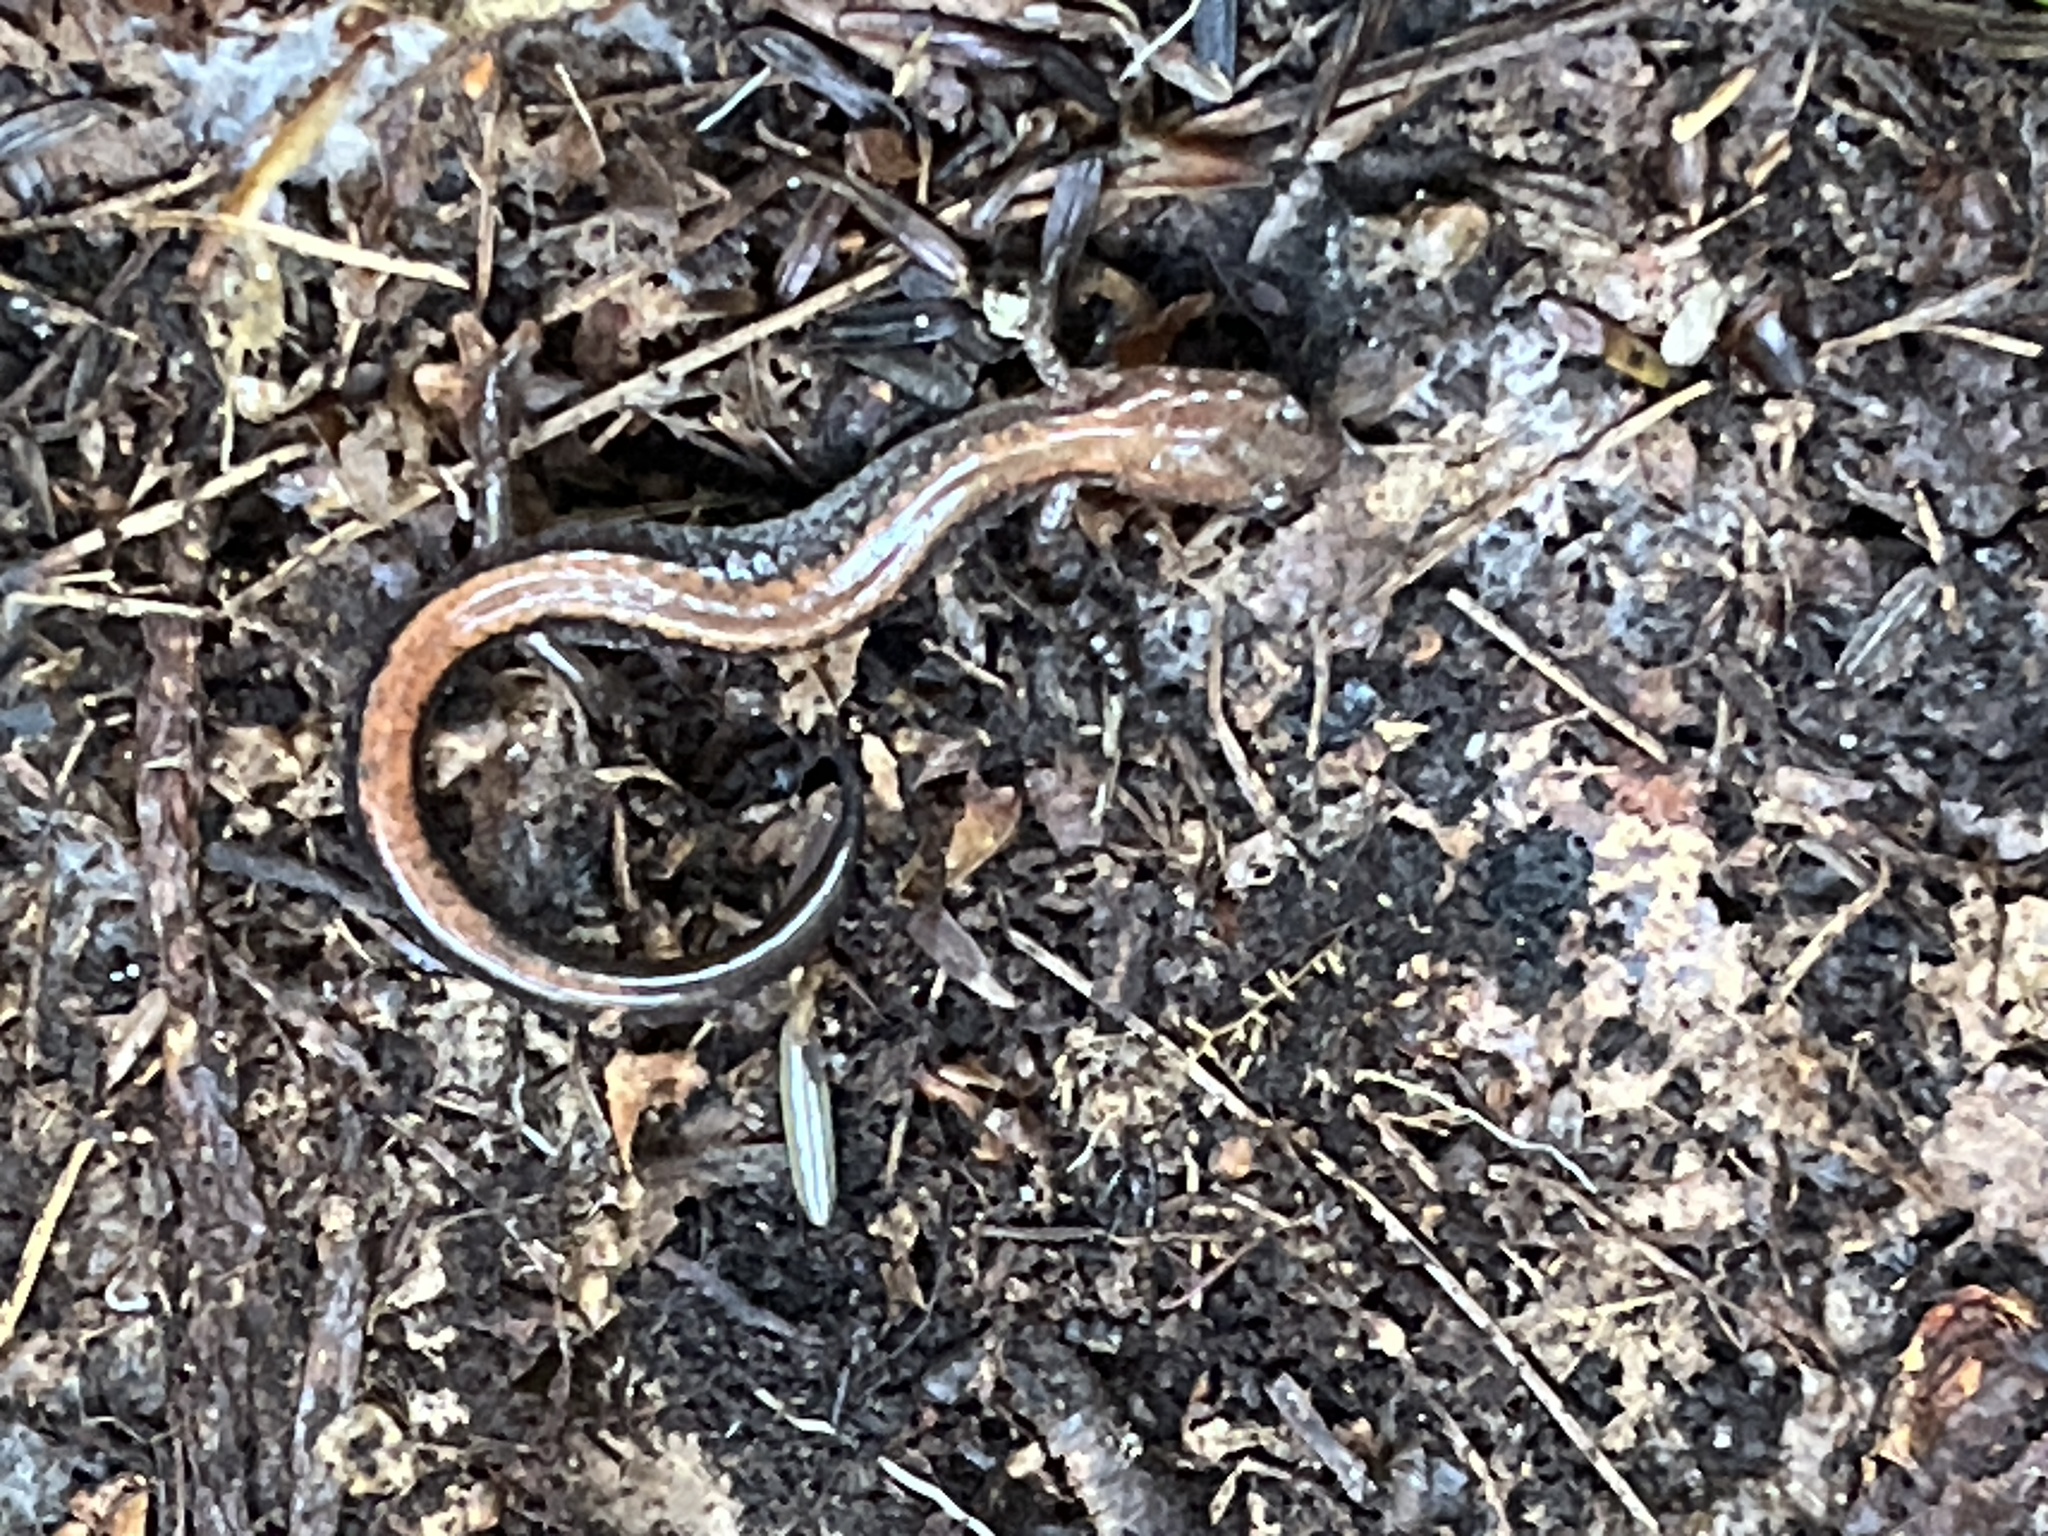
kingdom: Animalia
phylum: Chordata
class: Amphibia
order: Caudata
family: Plethodontidae
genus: Plethodon
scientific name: Plethodon cinereus
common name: Redback salamander
